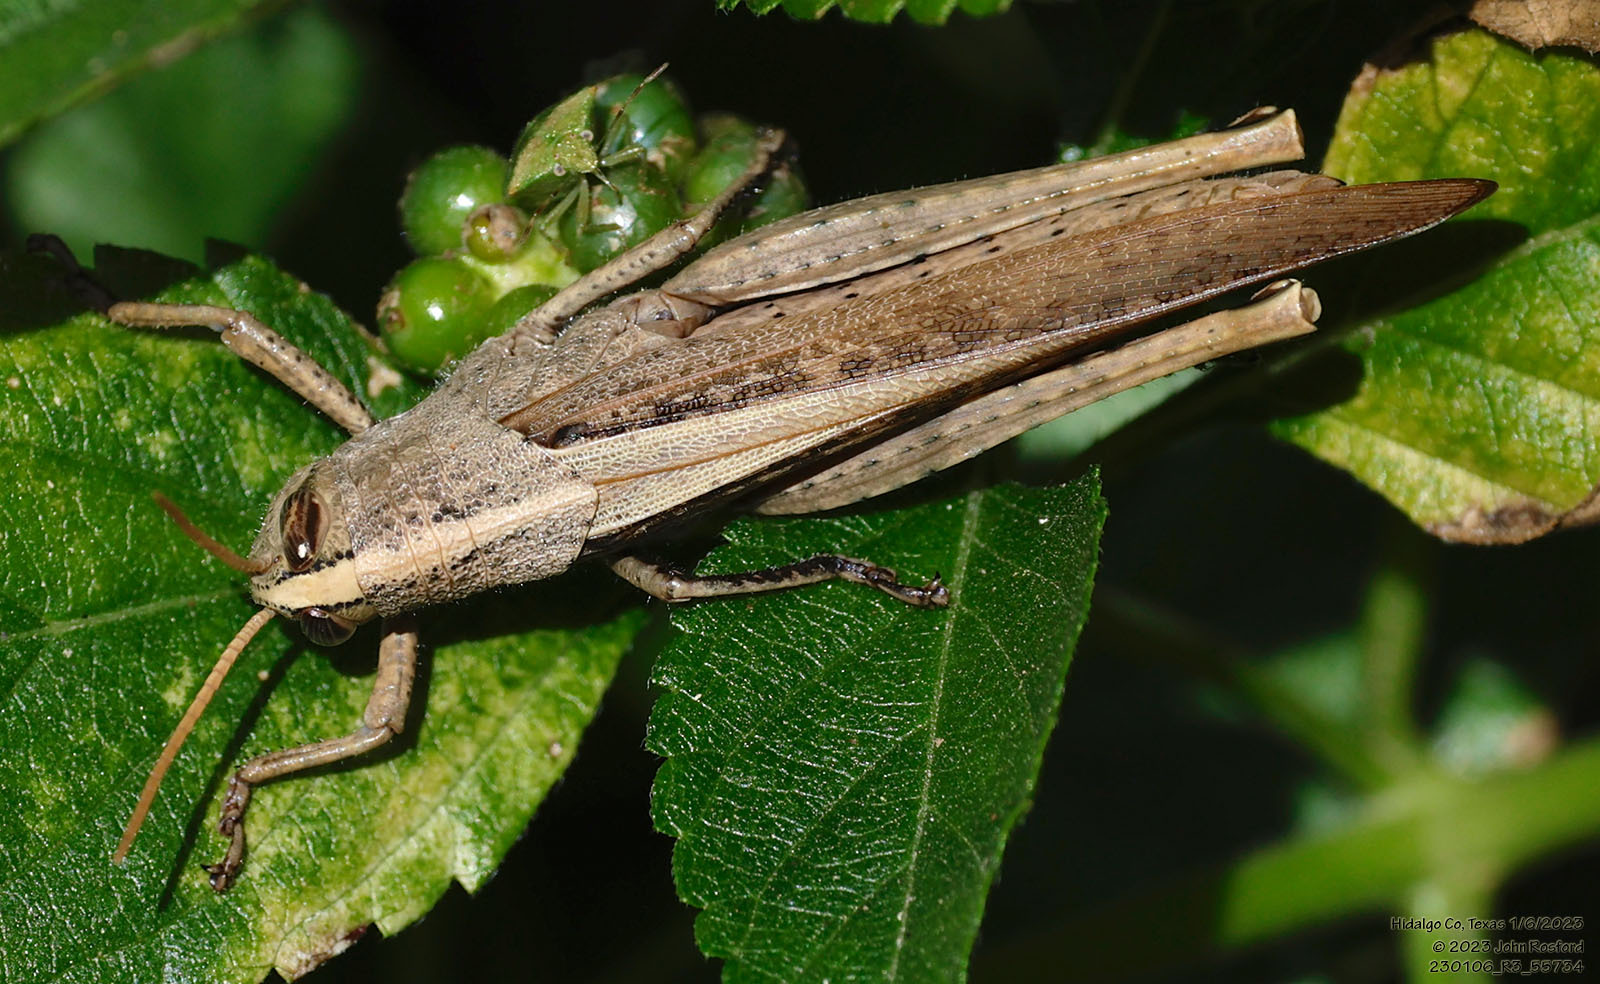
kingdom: Animalia
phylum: Arthropoda
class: Insecta
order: Orthoptera
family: Acrididae
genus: Schistocerca
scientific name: Schistocerca impleta
